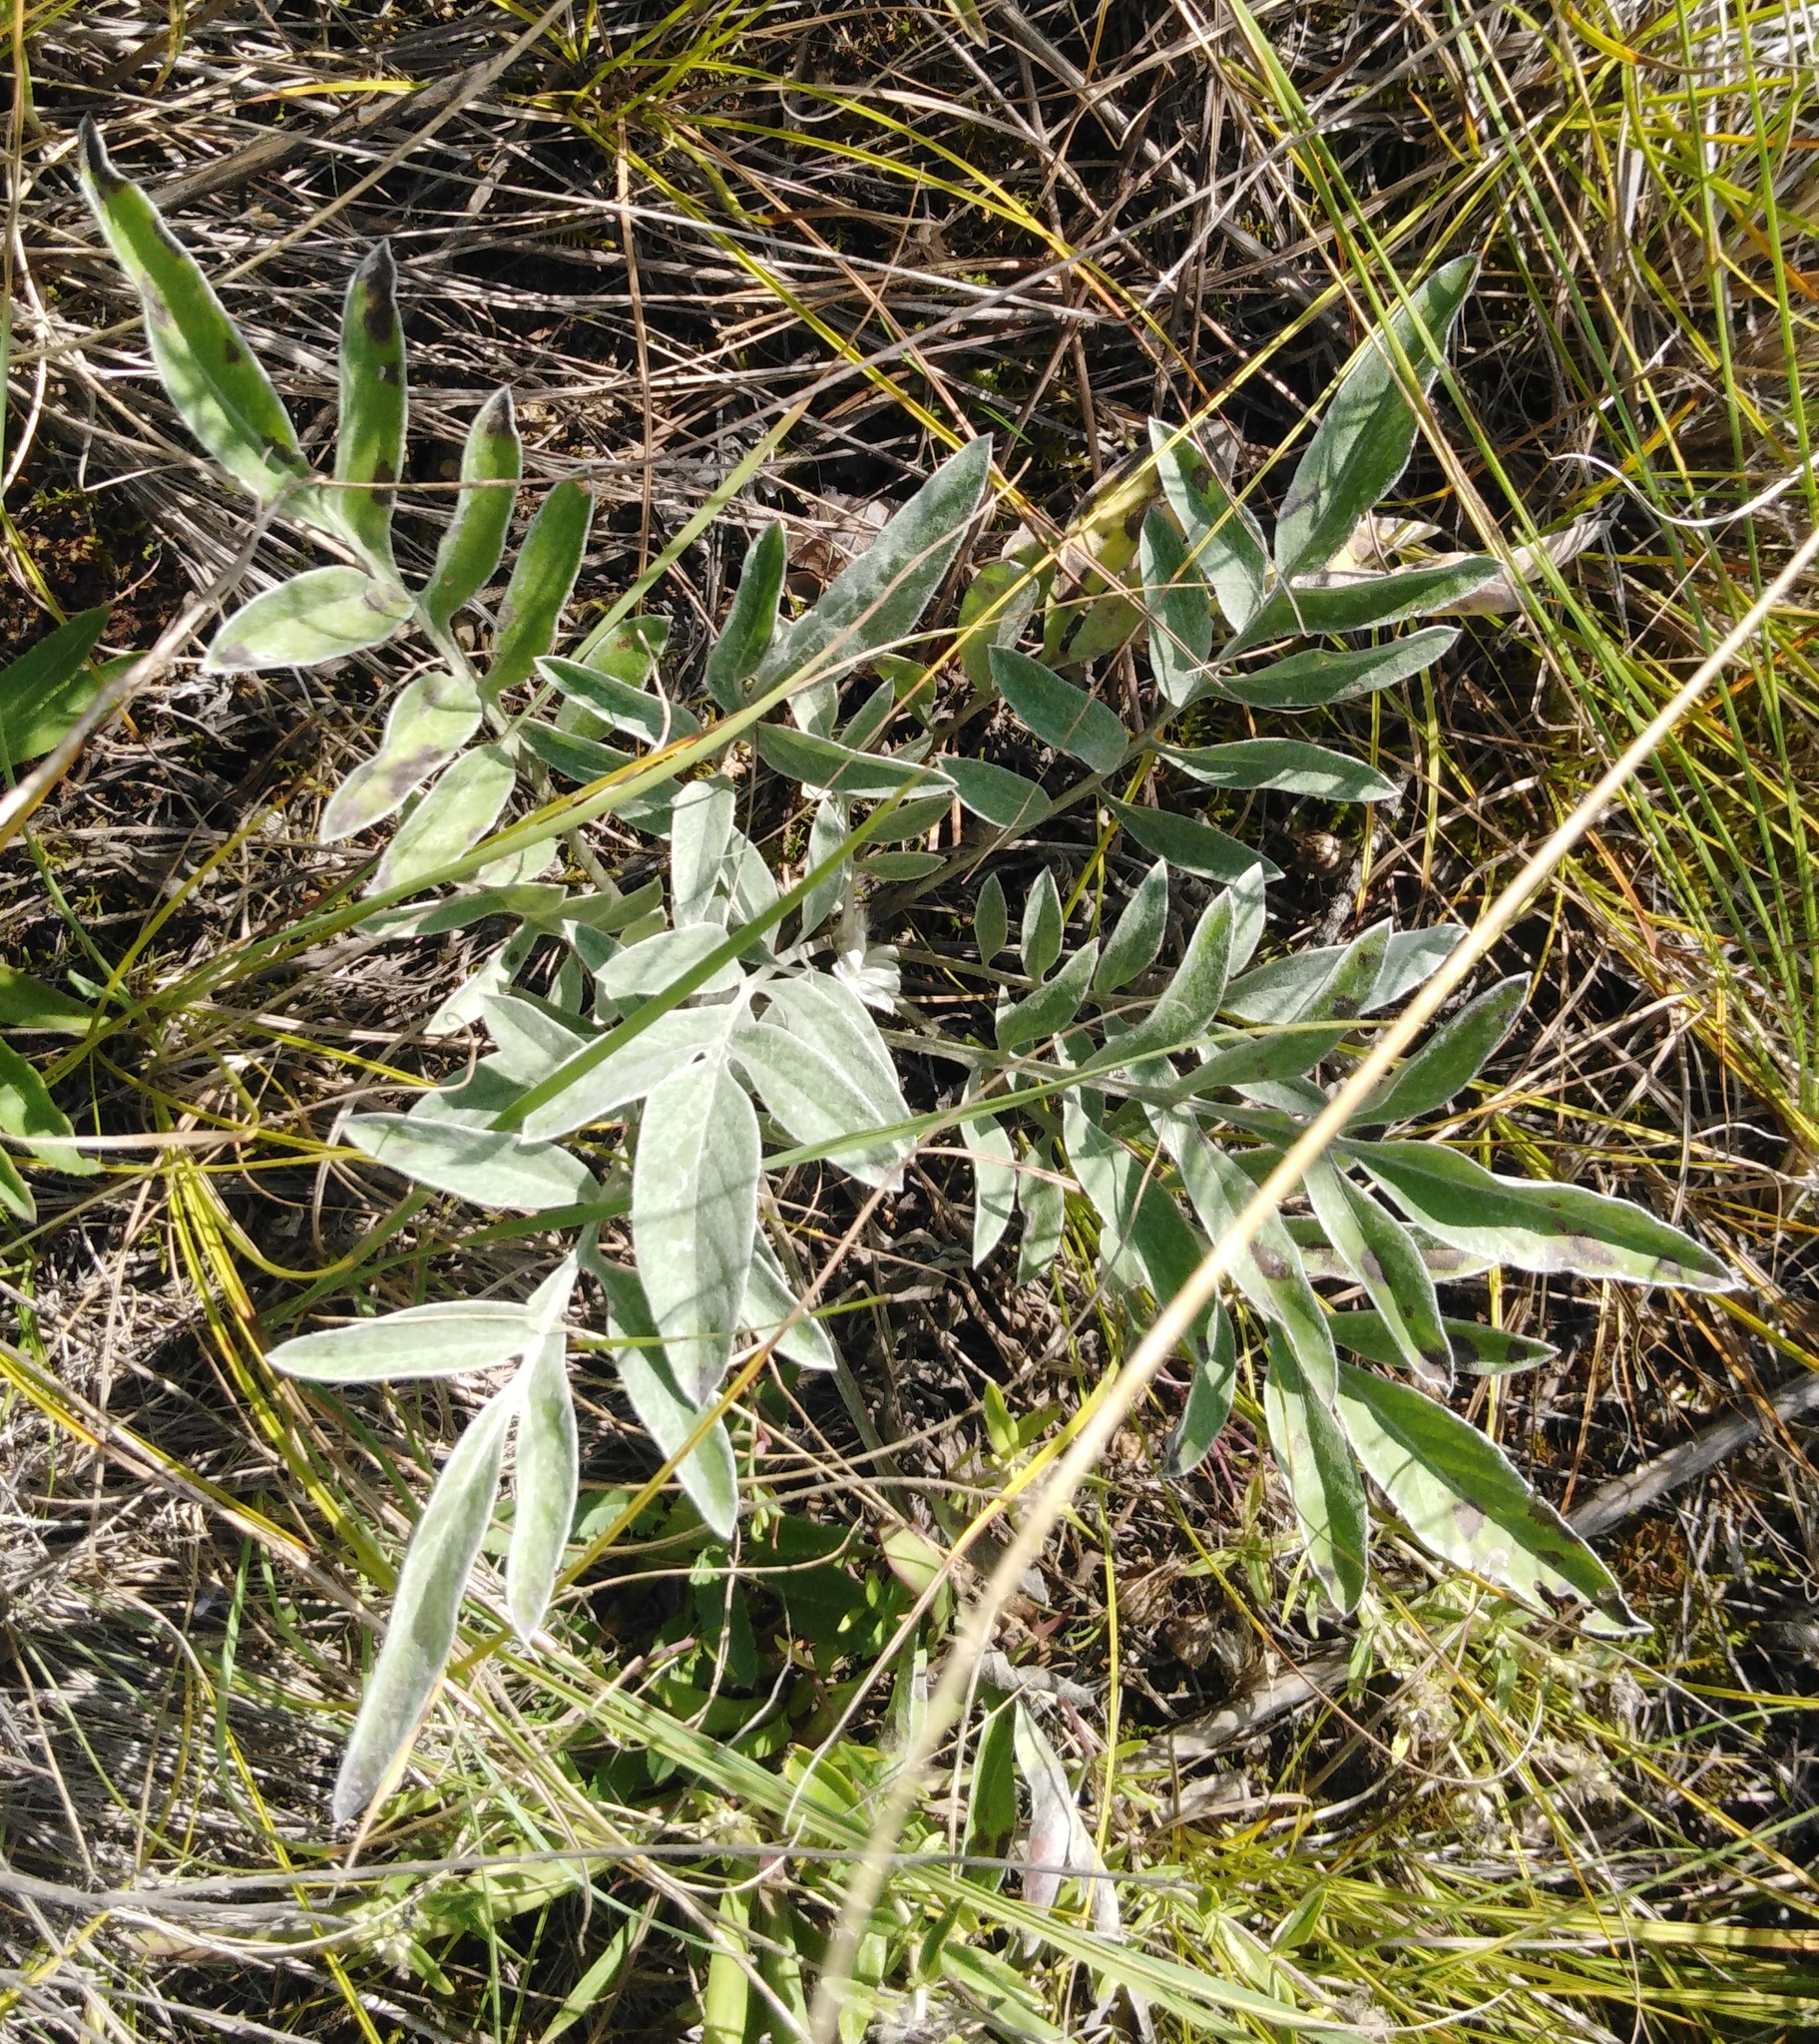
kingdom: Plantae
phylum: Tracheophyta
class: Magnoliopsida
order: Asterales
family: Asteraceae
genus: Psephellus
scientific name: Psephellus sumensis
